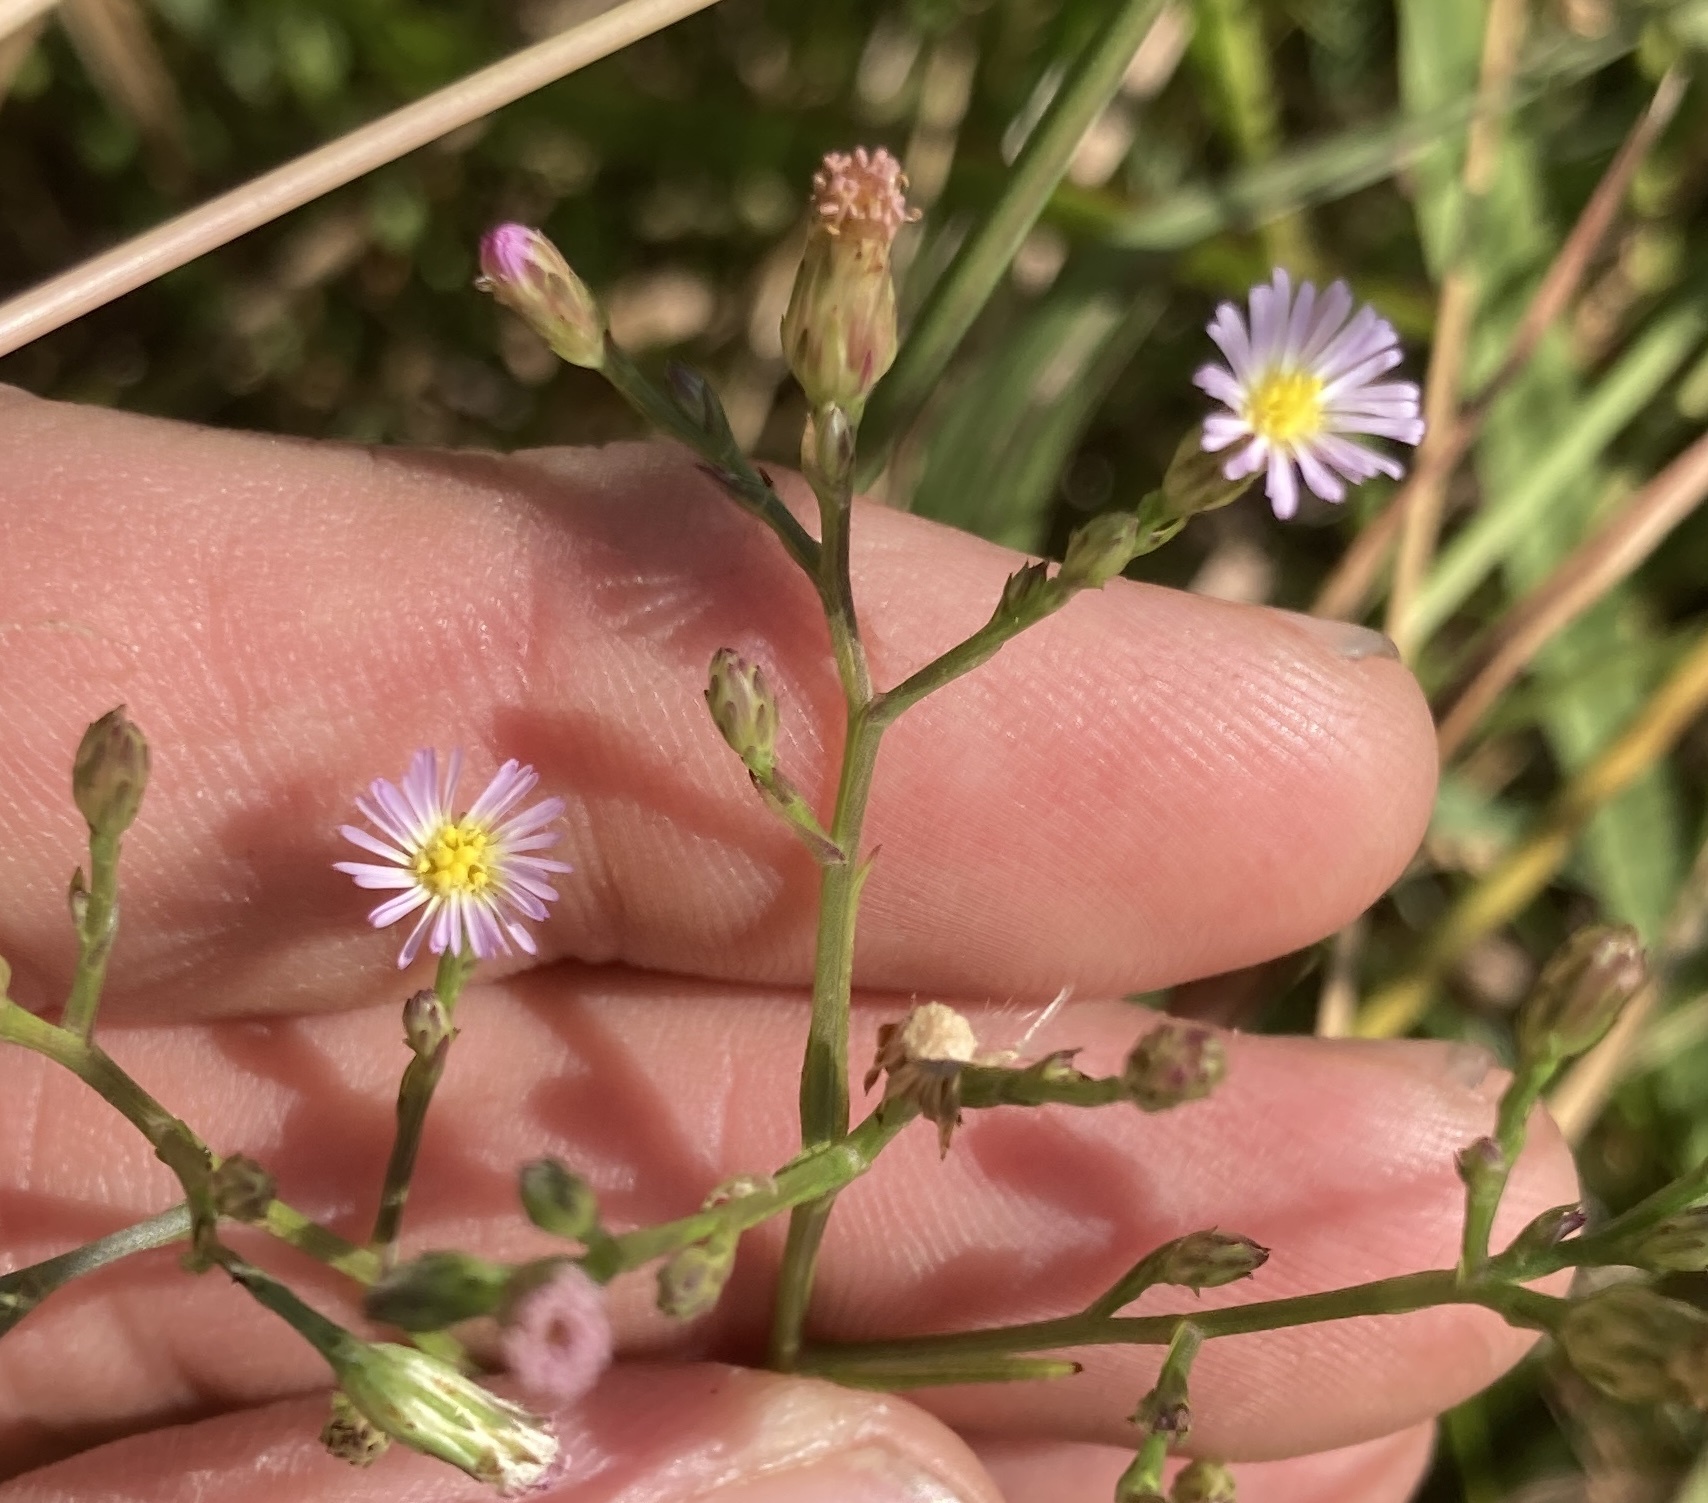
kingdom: Plantae
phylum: Tracheophyta
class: Magnoliopsida
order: Asterales
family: Asteraceae
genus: Symphyotrichum
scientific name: Symphyotrichum subulatum
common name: Annual saltmarsh aster
